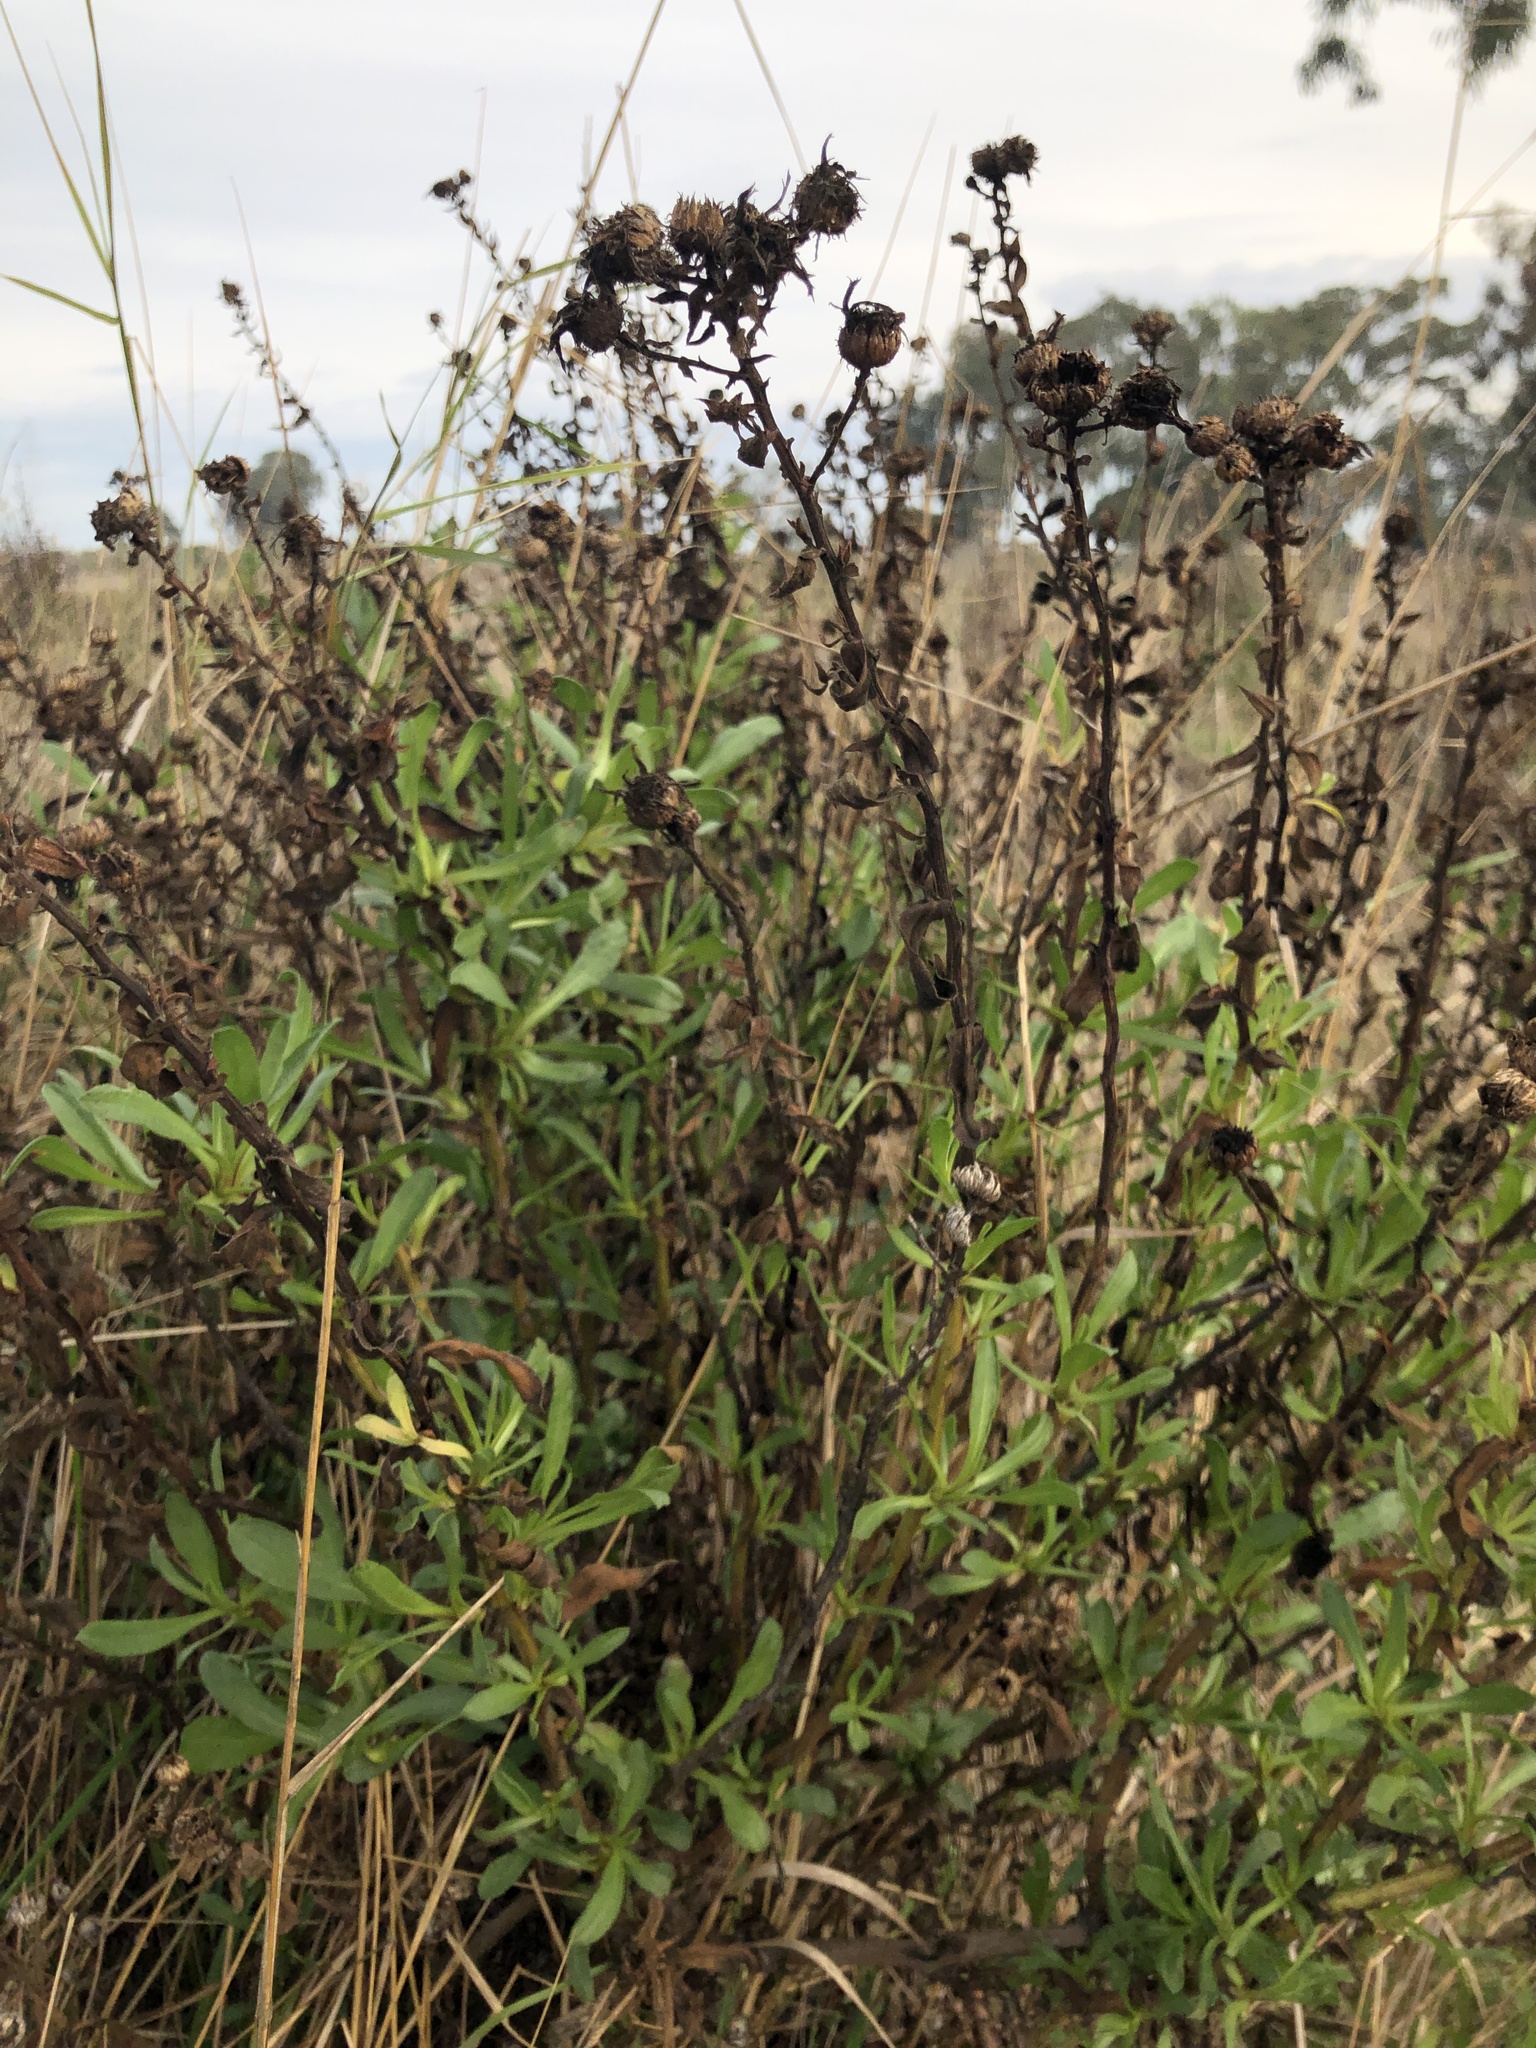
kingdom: Plantae
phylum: Tracheophyta
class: Magnoliopsida
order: Asterales
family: Asteraceae
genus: Baccharis
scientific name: Baccharis glutinosa
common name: Saltmarsh baccharis
